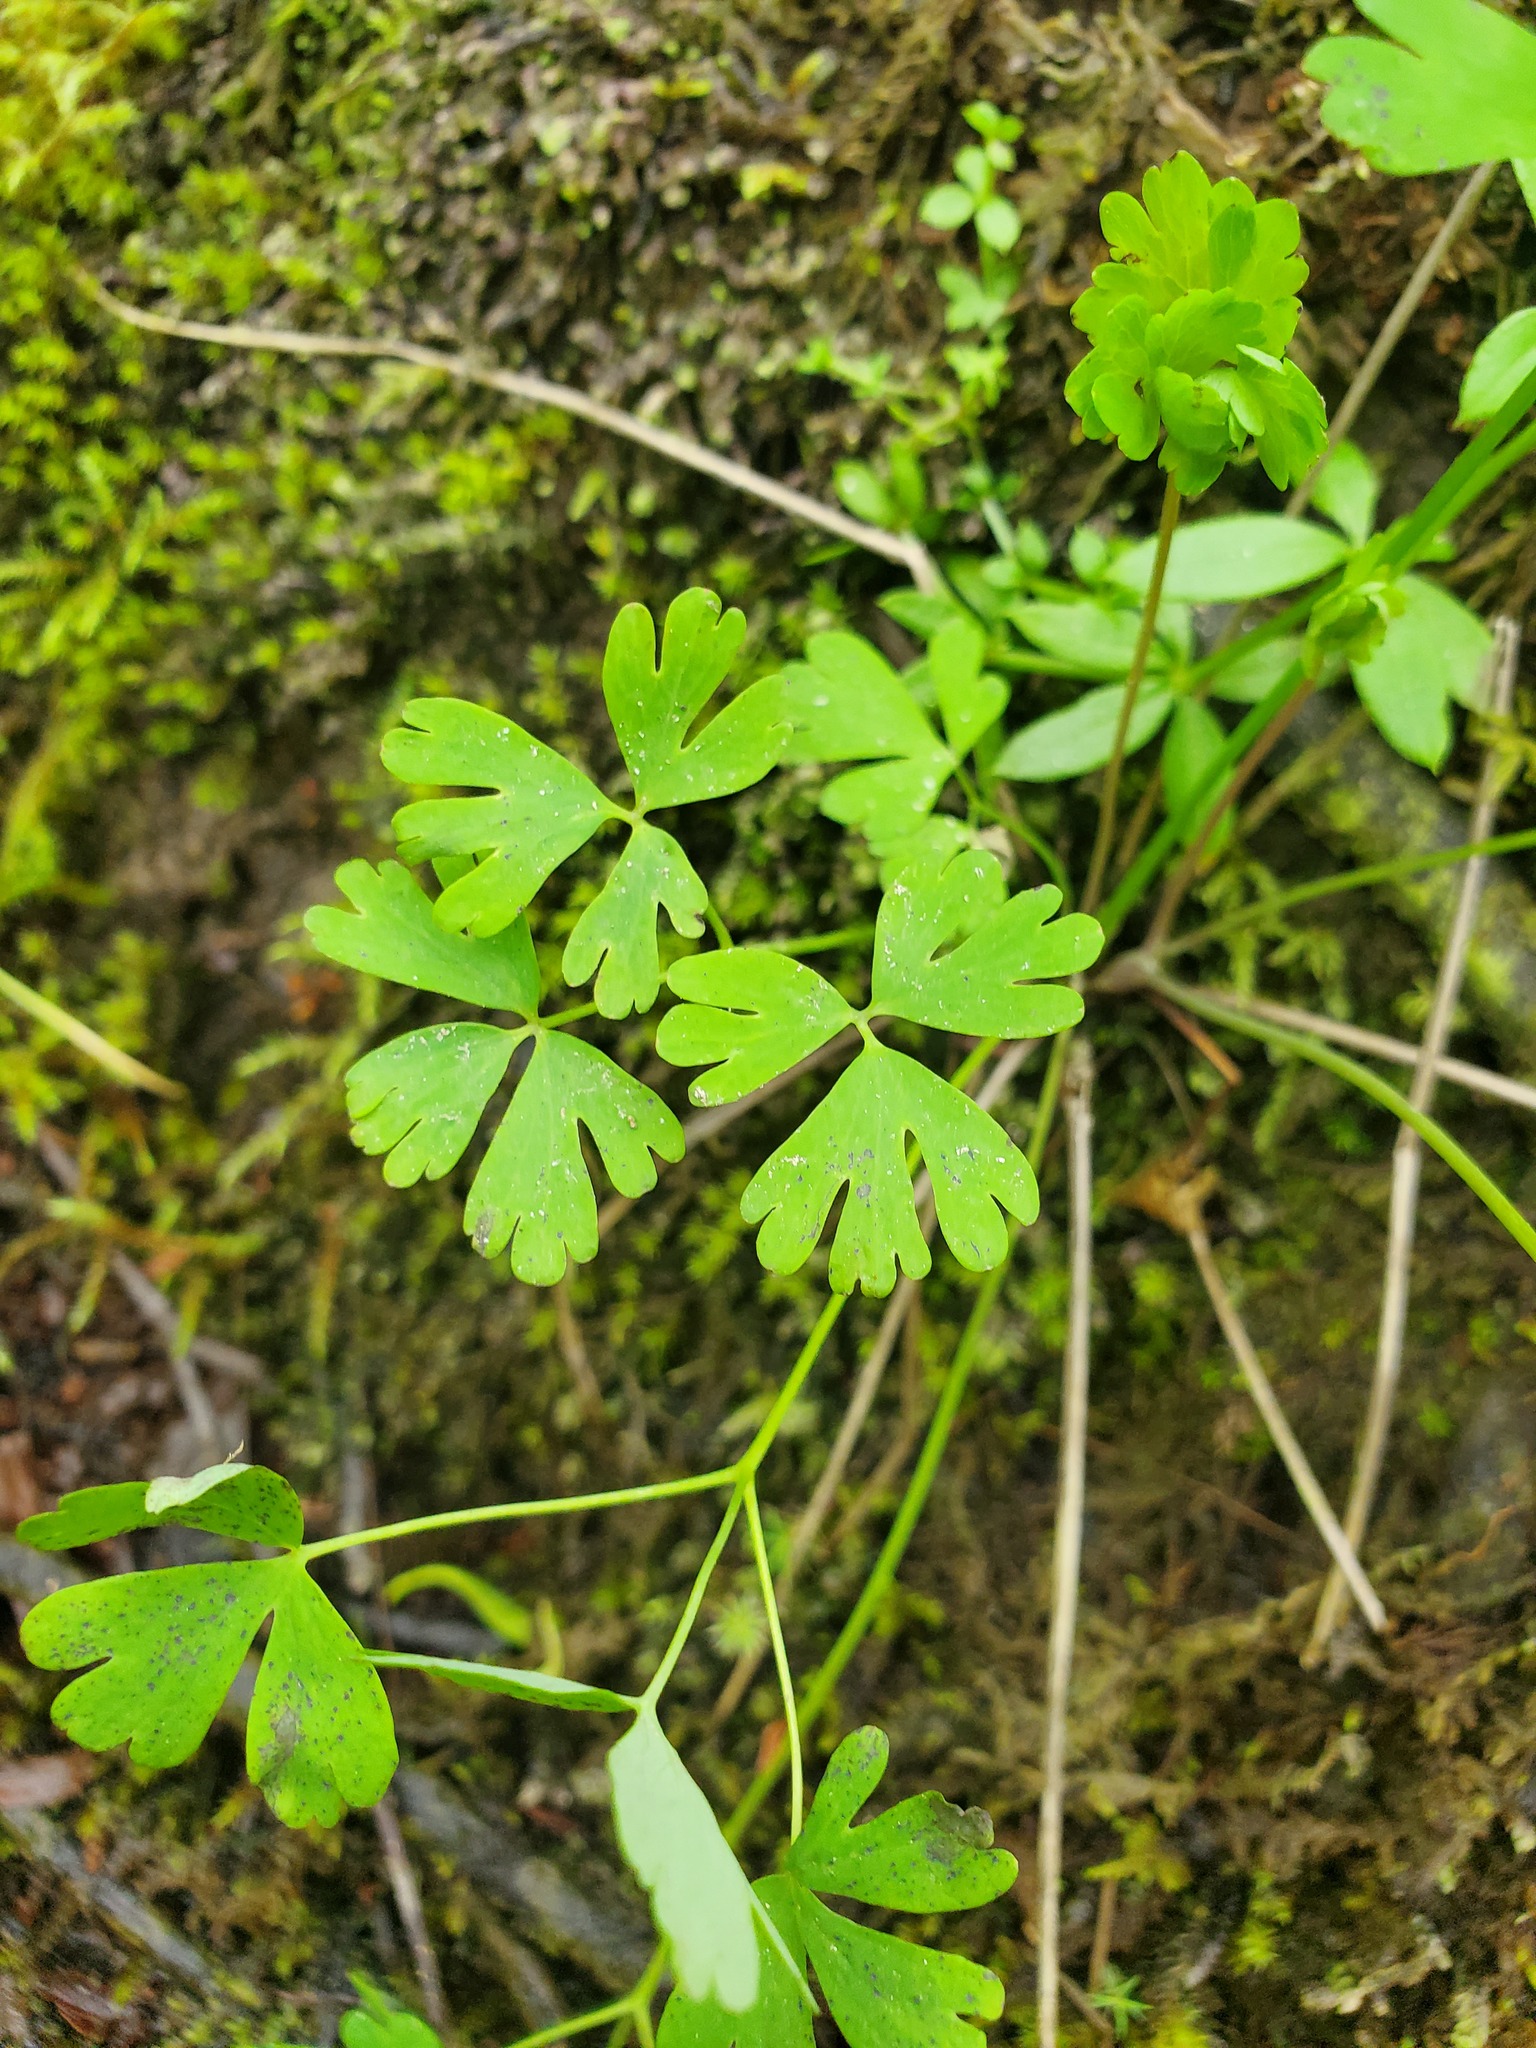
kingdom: Plantae
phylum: Tracheophyta
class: Magnoliopsida
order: Ranunculales
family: Ranunculaceae
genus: Aquilegia
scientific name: Aquilegia formosa
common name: Sitka columbine
